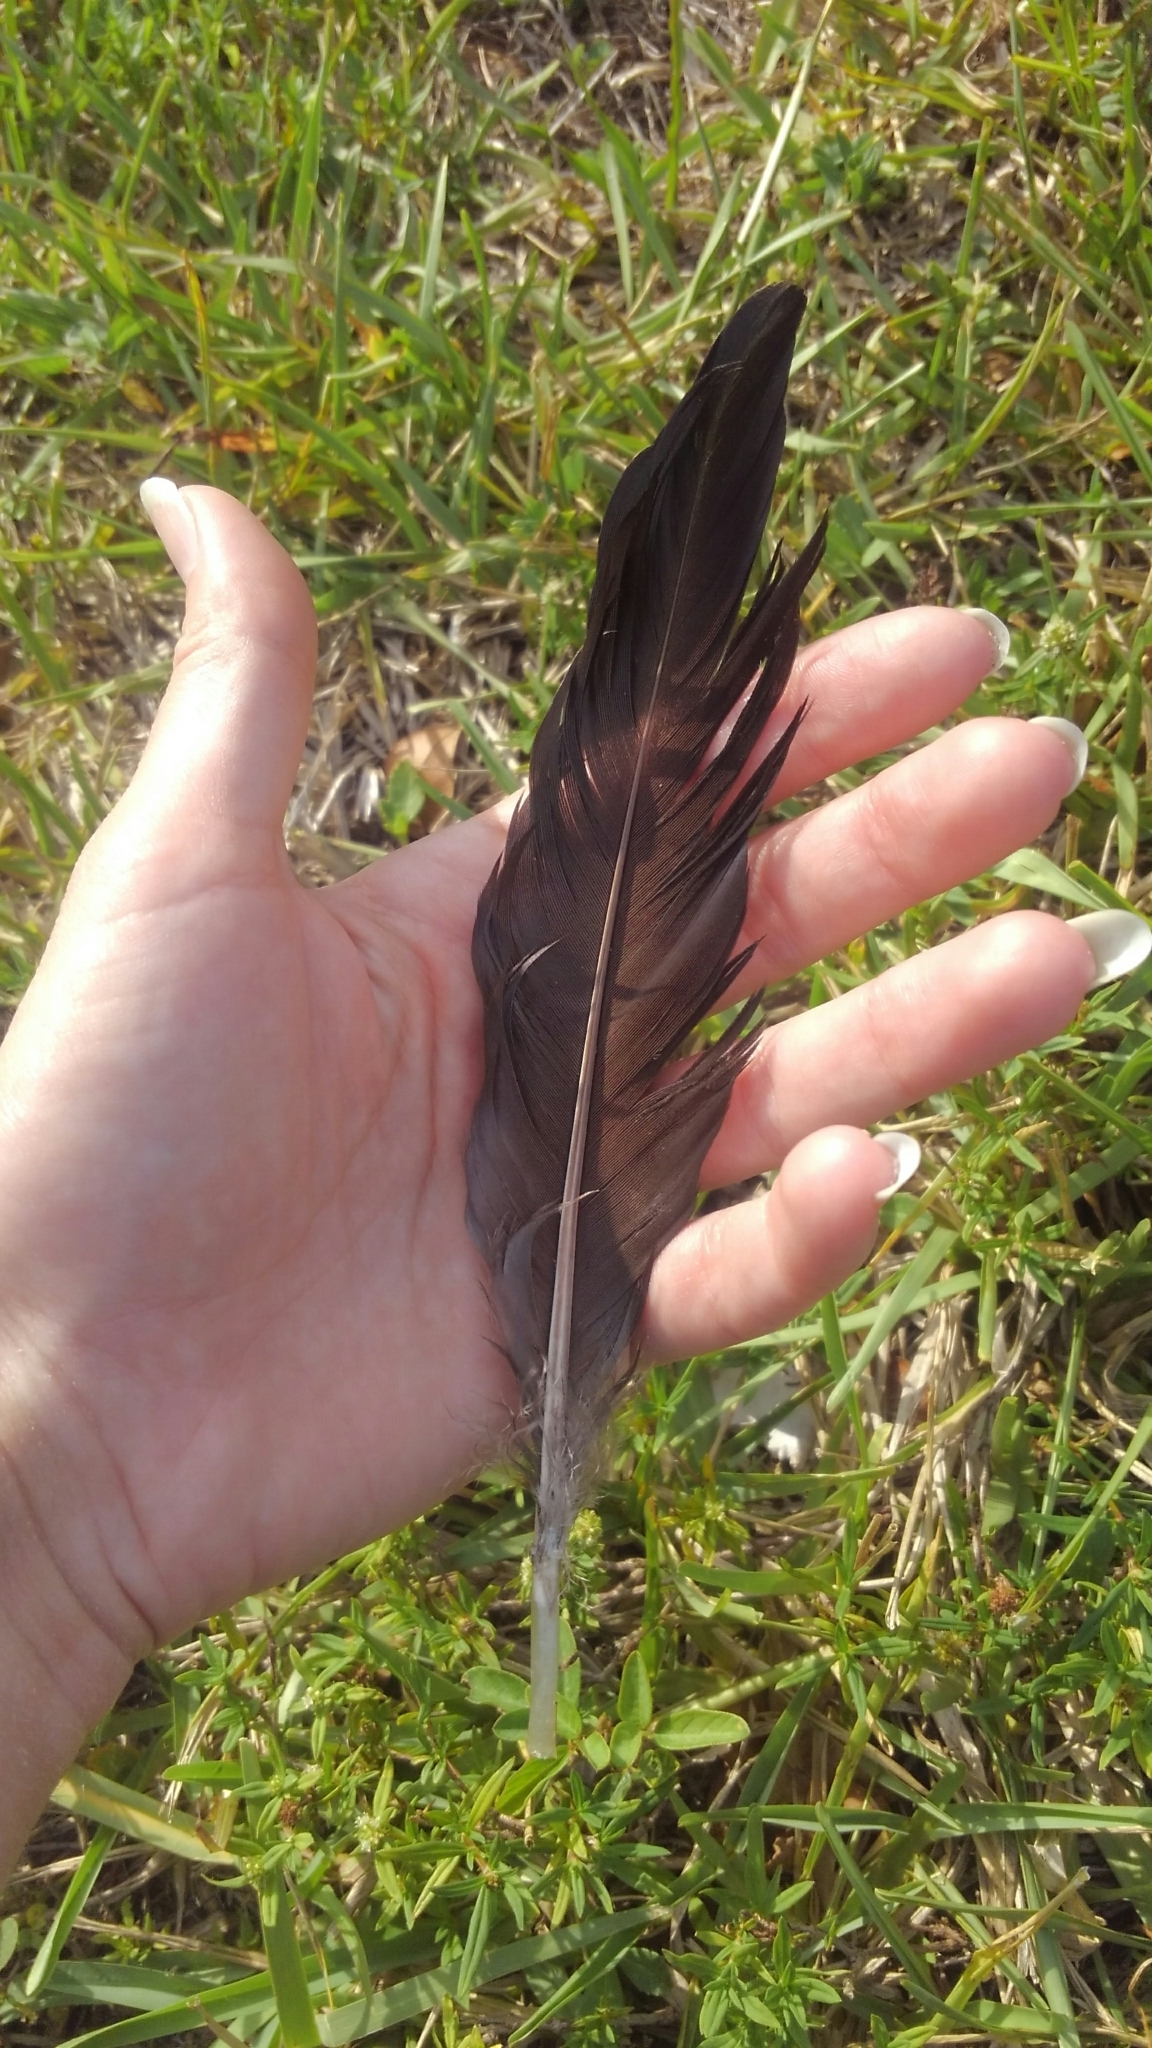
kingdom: Animalia
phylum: Chordata
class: Aves
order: Anseriformes
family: Anatidae
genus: Cairina
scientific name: Cairina moschata
